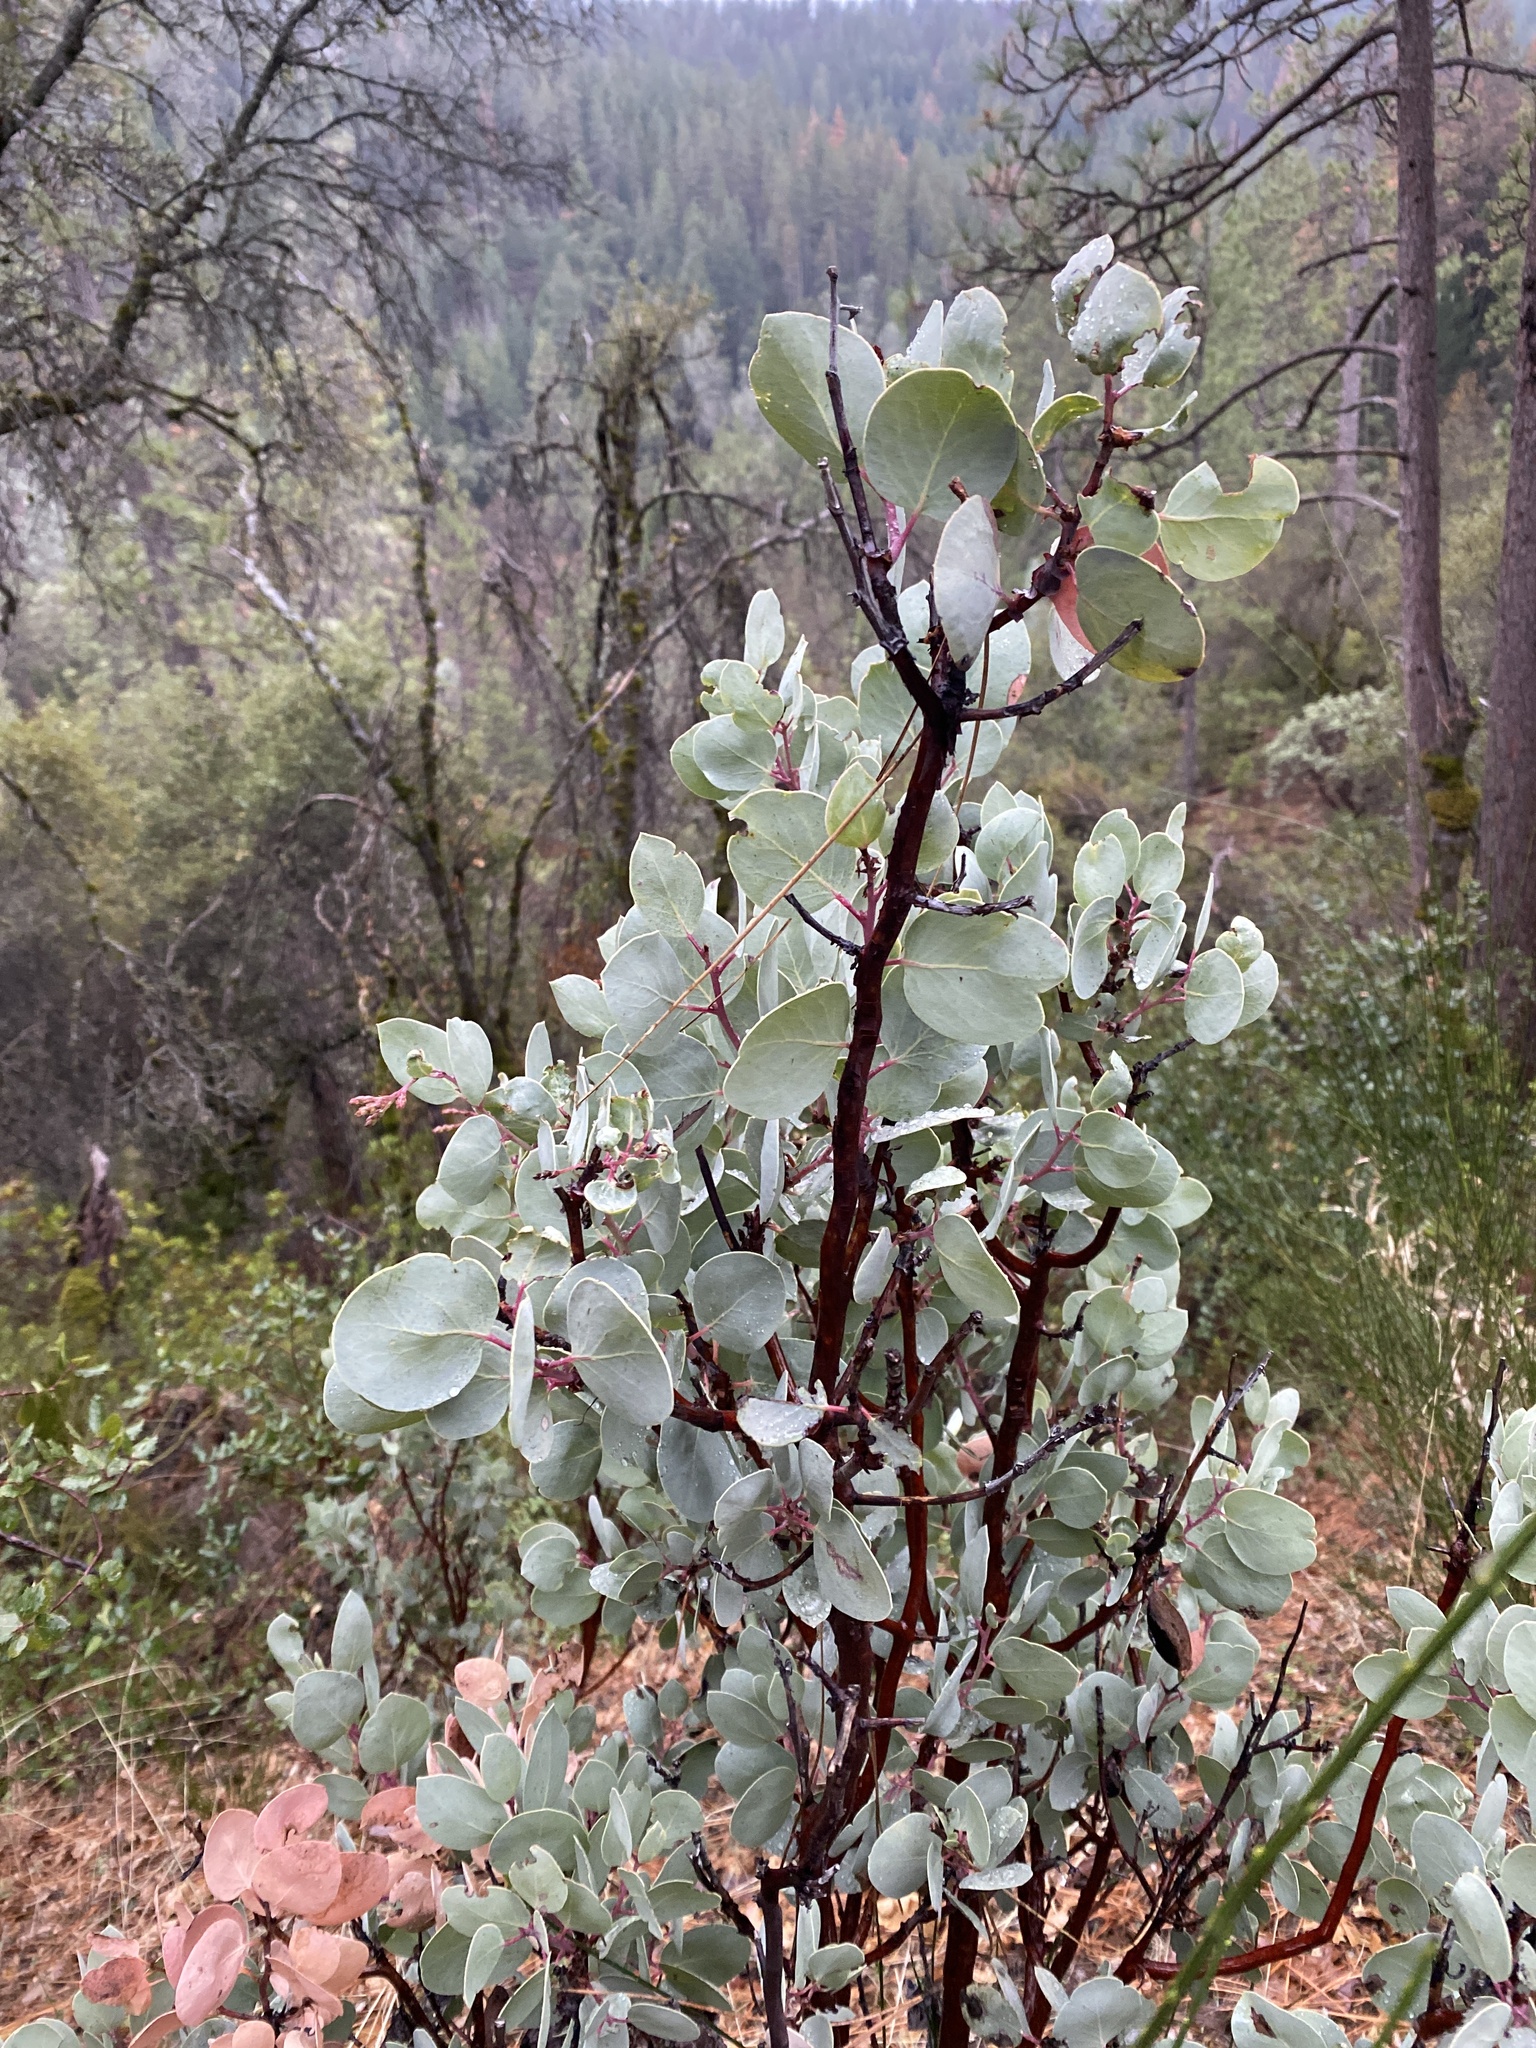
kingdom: Plantae
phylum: Tracheophyta
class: Magnoliopsida
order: Ericales
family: Ericaceae
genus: Arctostaphylos
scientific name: Arctostaphylos viscida
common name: White-leaf manzanita
